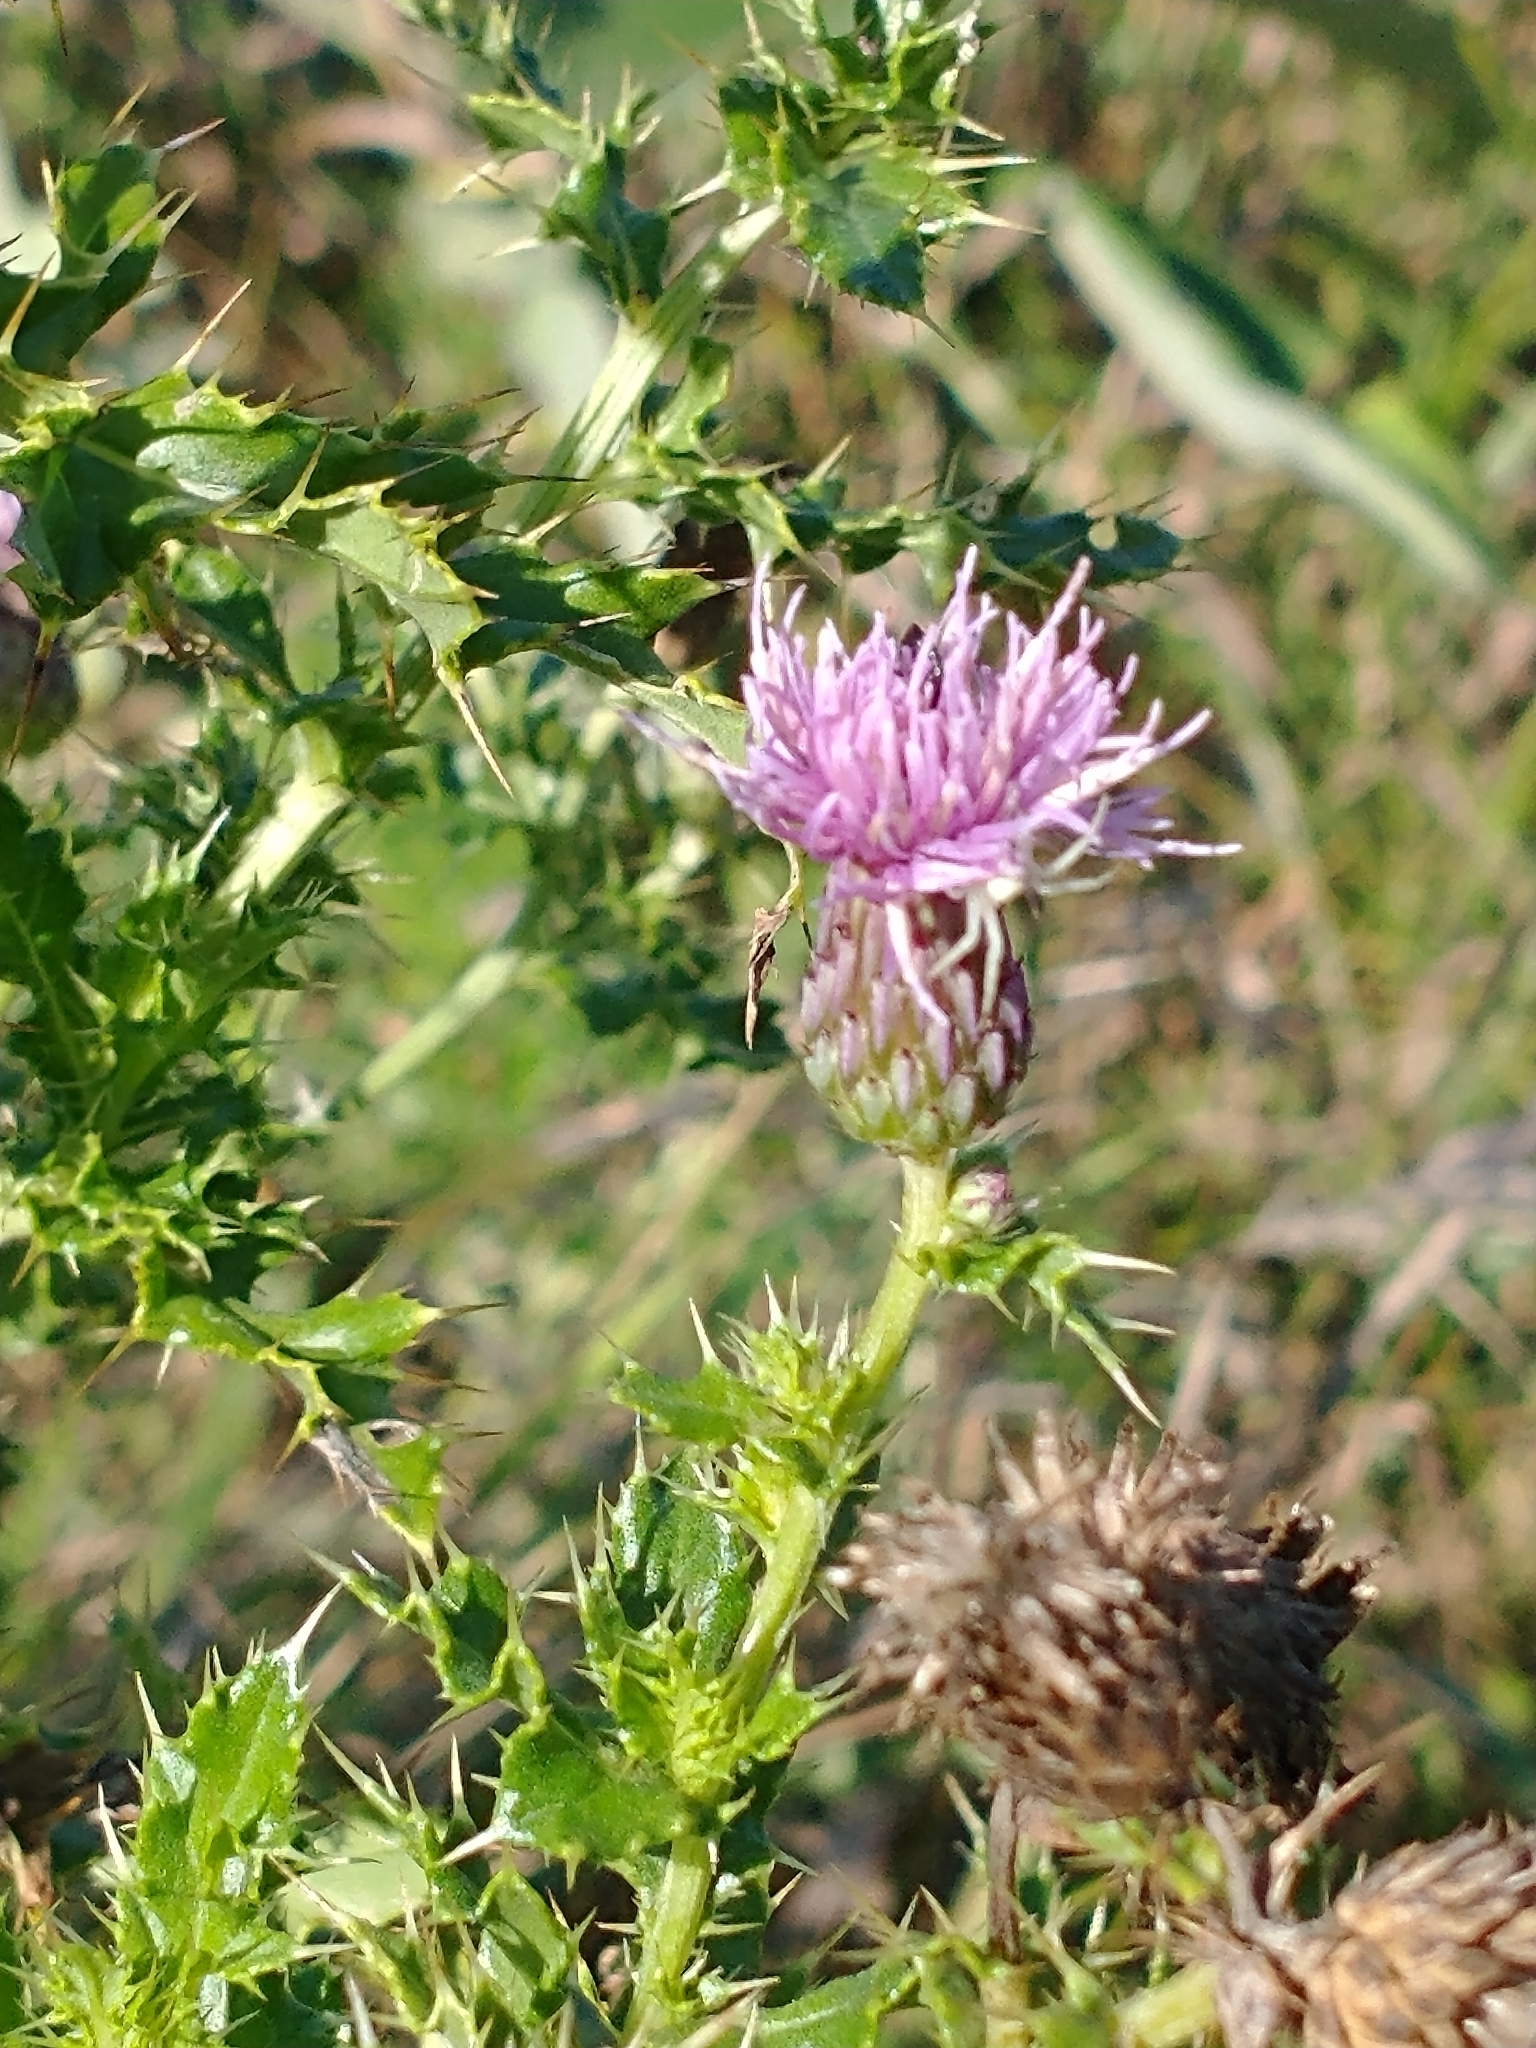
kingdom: Plantae
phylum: Tracheophyta
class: Magnoliopsida
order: Asterales
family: Asteraceae
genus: Cirsium
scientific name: Cirsium arvense
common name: Creeping thistle
